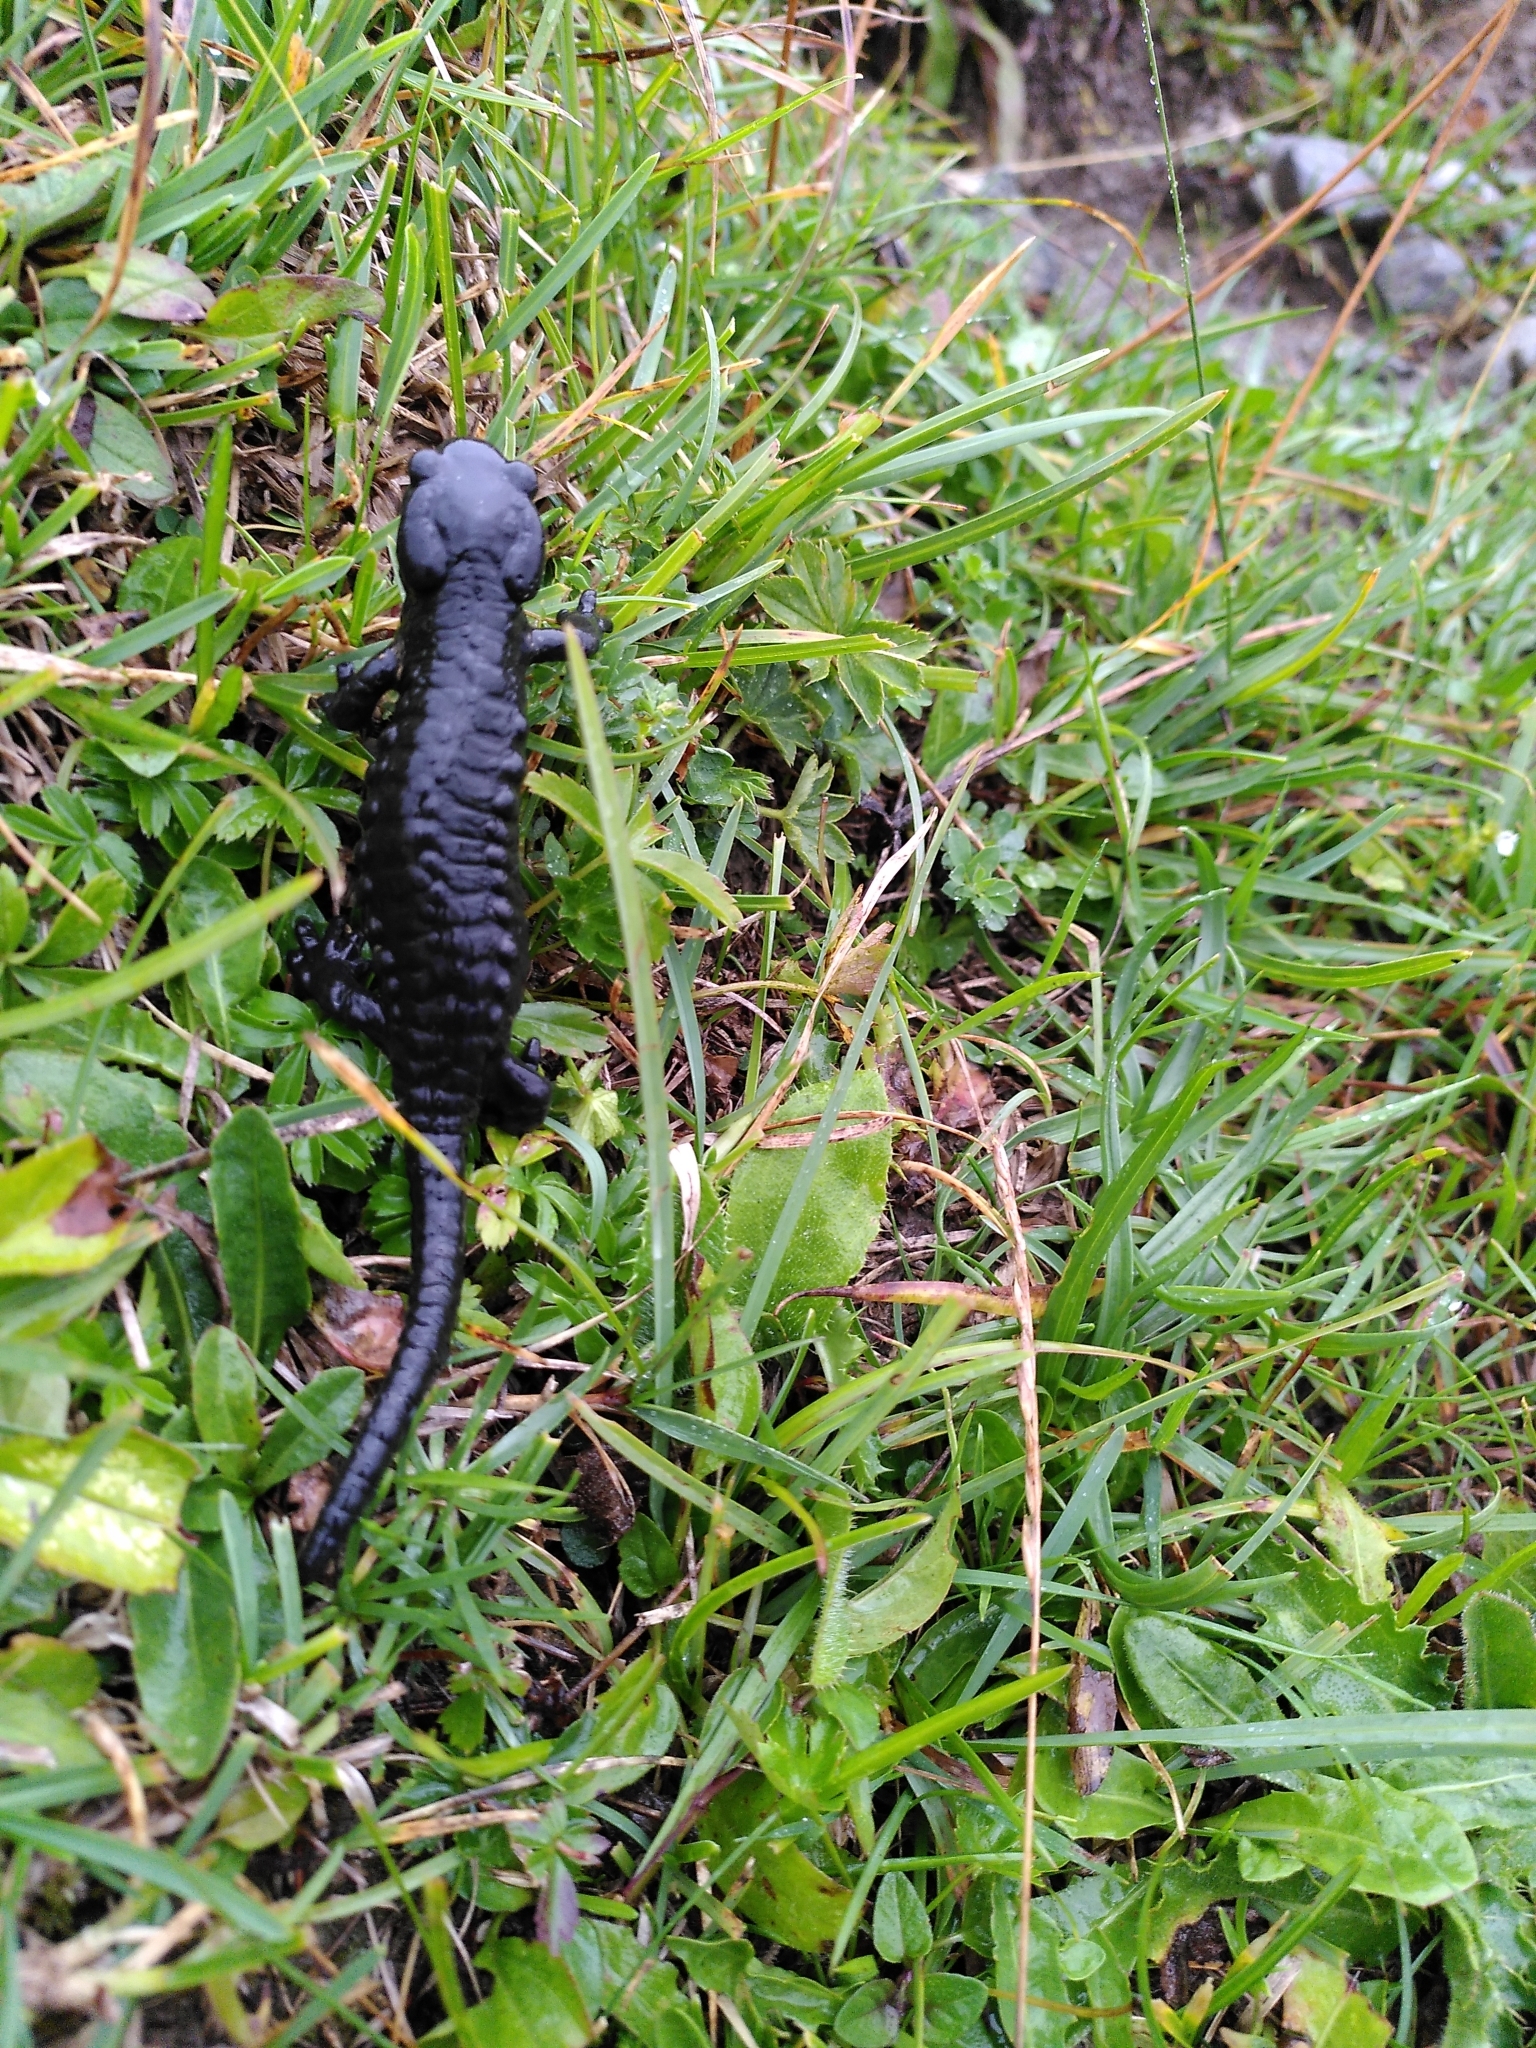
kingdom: Animalia
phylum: Chordata
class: Amphibia
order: Caudata
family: Salamandridae
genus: Salamandra
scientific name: Salamandra atra
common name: Alpine salamander
